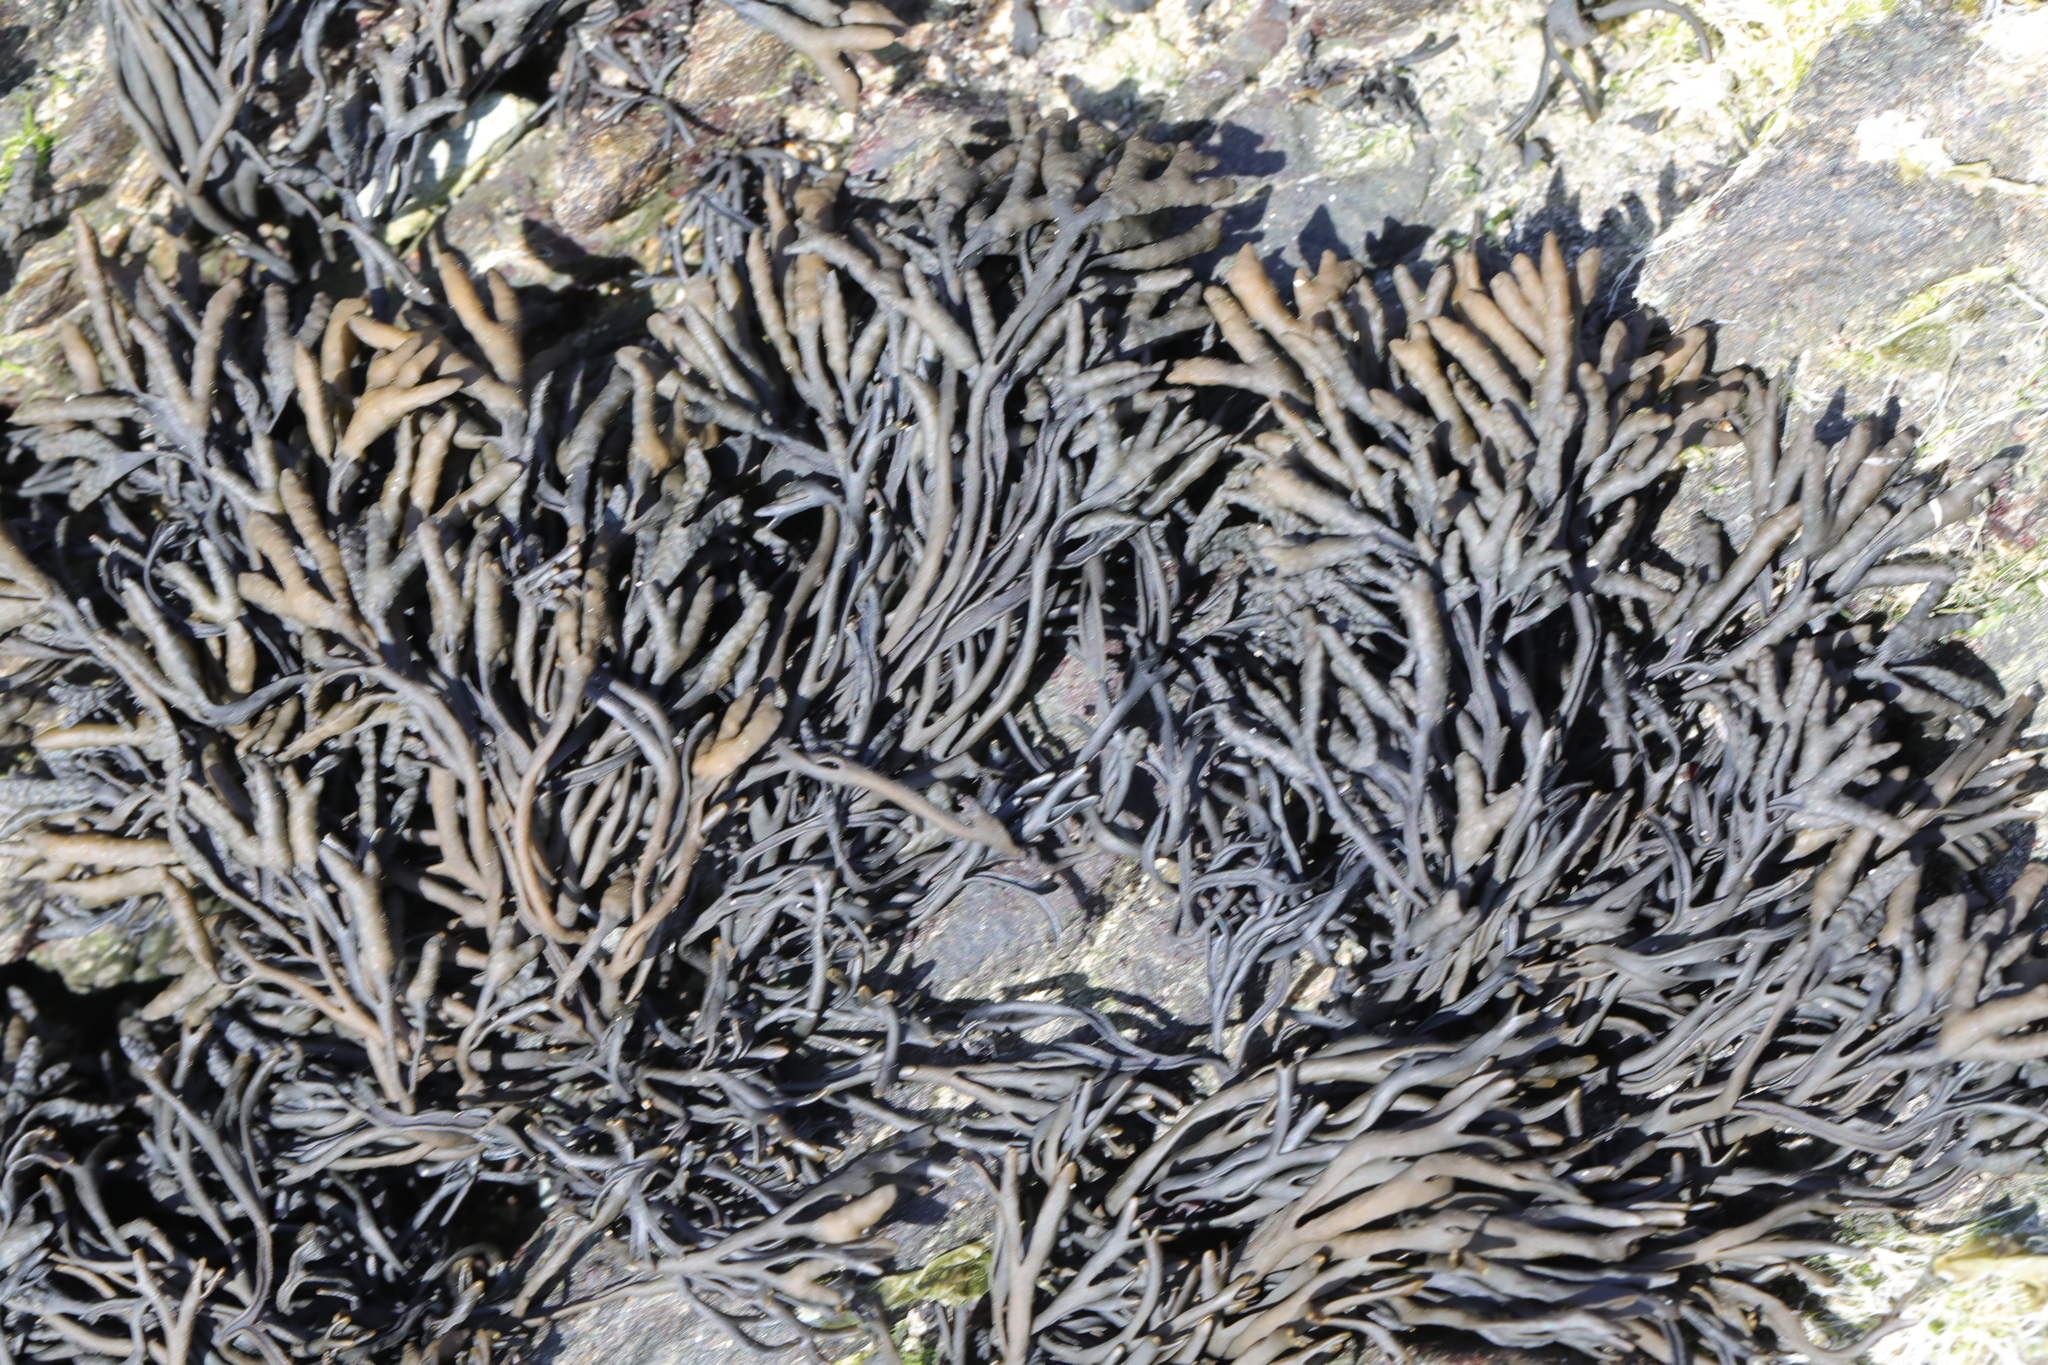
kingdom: Chromista
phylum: Ochrophyta
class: Phaeophyceae
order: Fucales
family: Fucaceae
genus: Pelvetia
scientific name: Pelvetia canaliculata
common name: Channelled wrack
